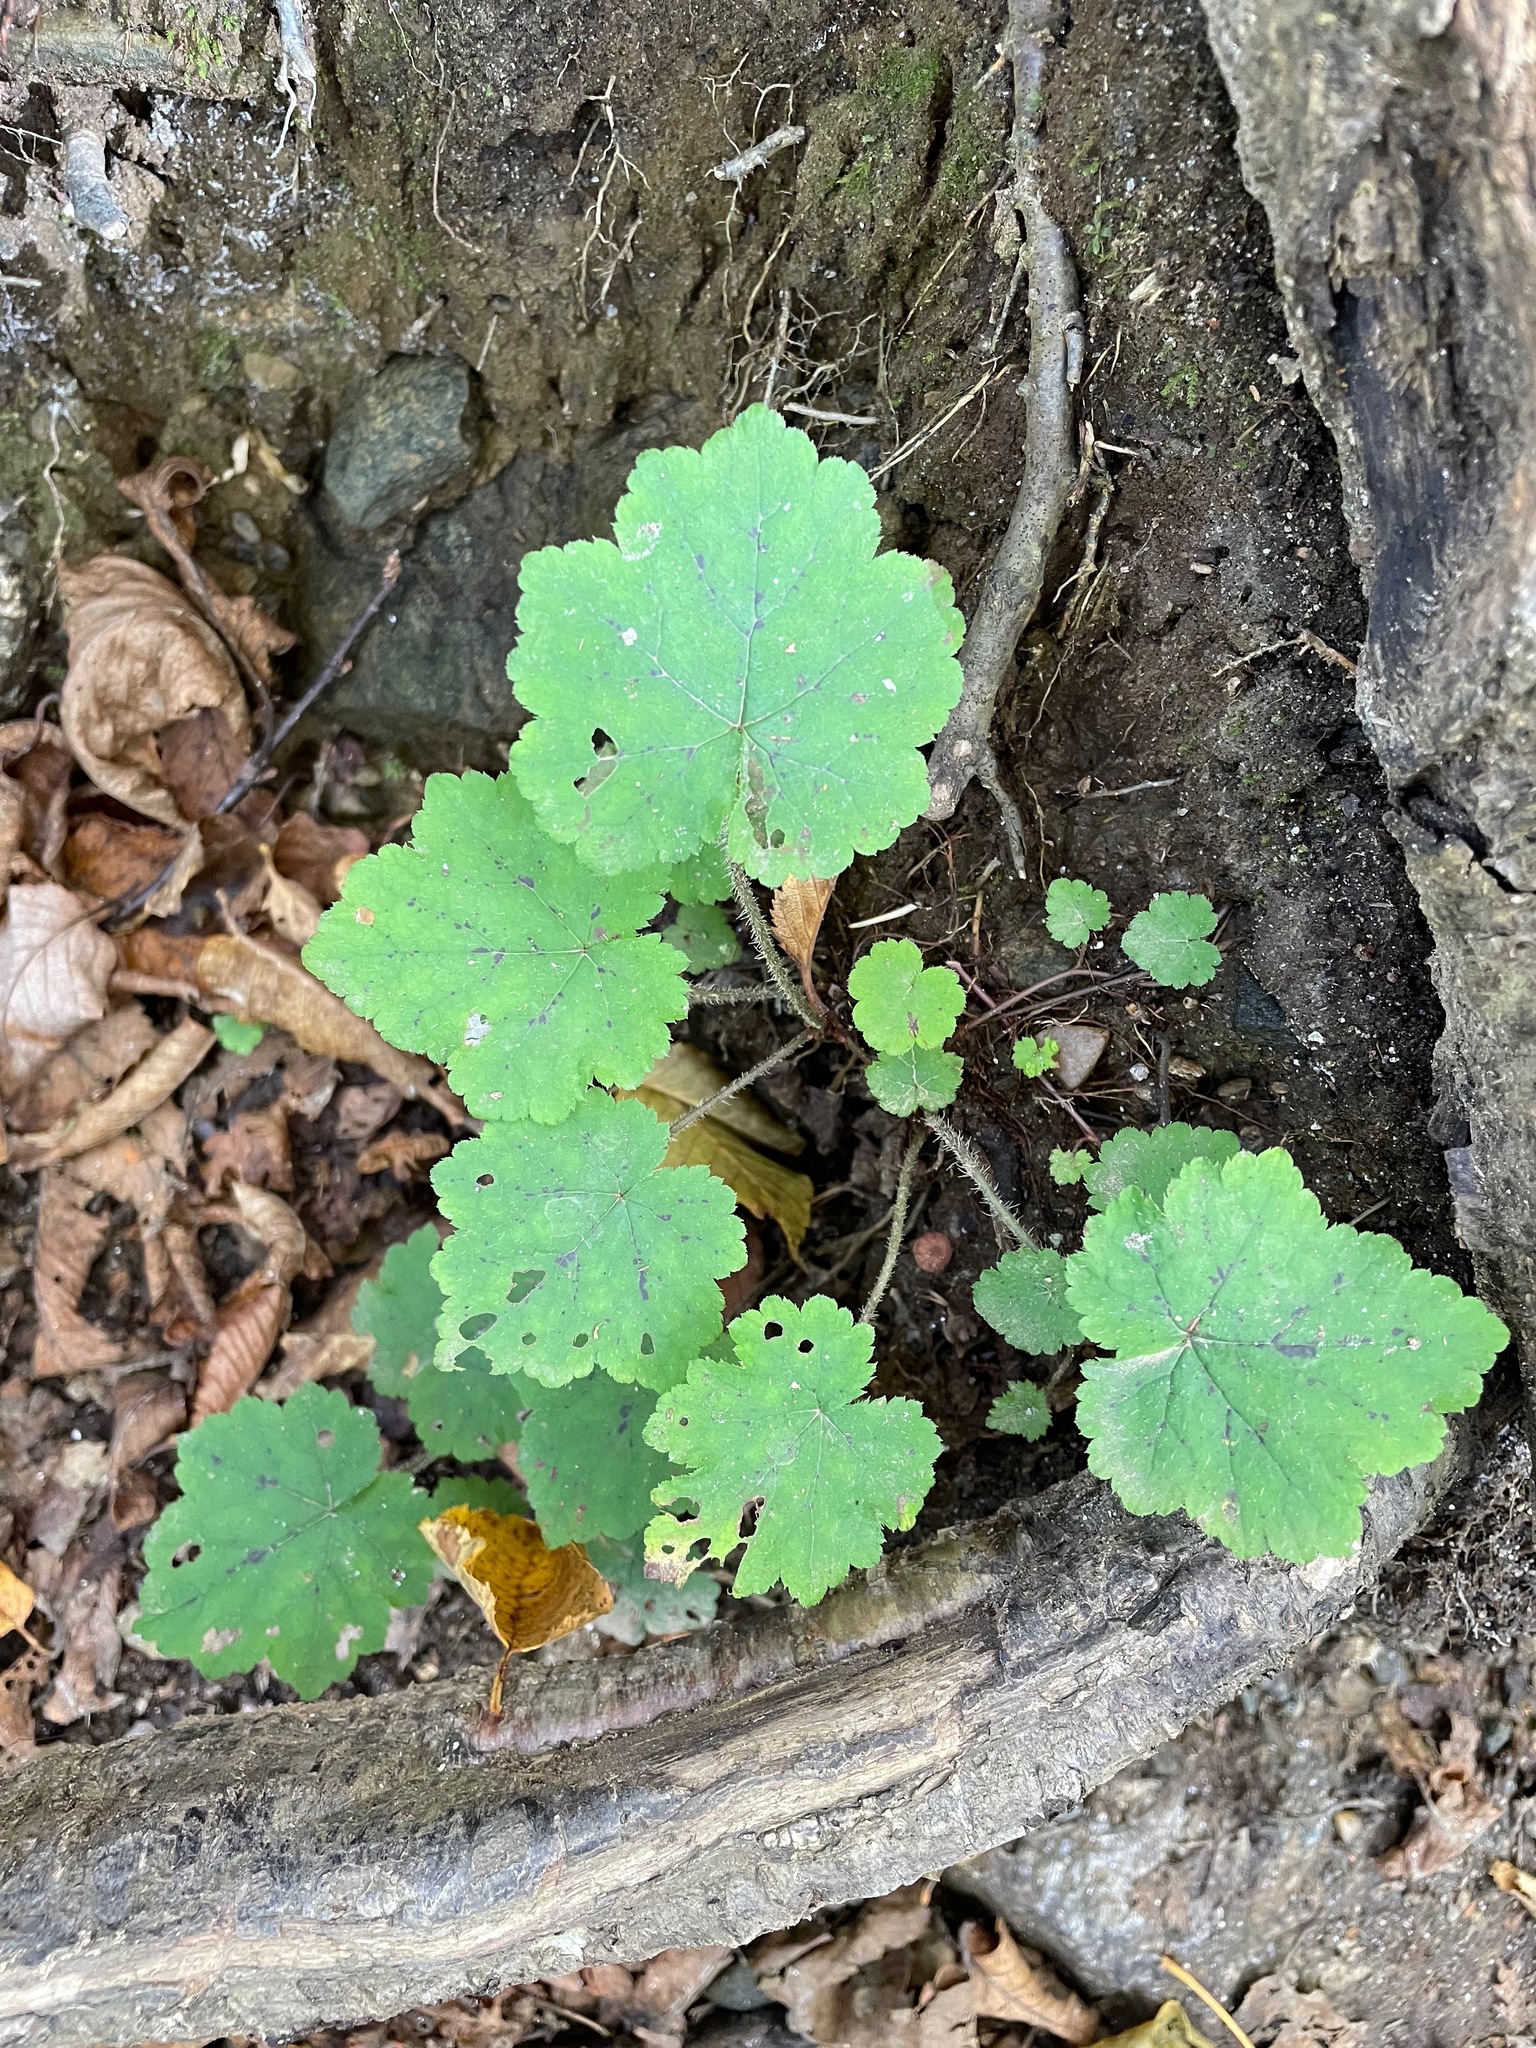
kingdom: Plantae
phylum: Tracheophyta
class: Magnoliopsida
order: Saxifragales
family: Saxifragaceae
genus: Tiarella
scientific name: Tiarella stolonifera
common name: Stoloniferous foamflower
